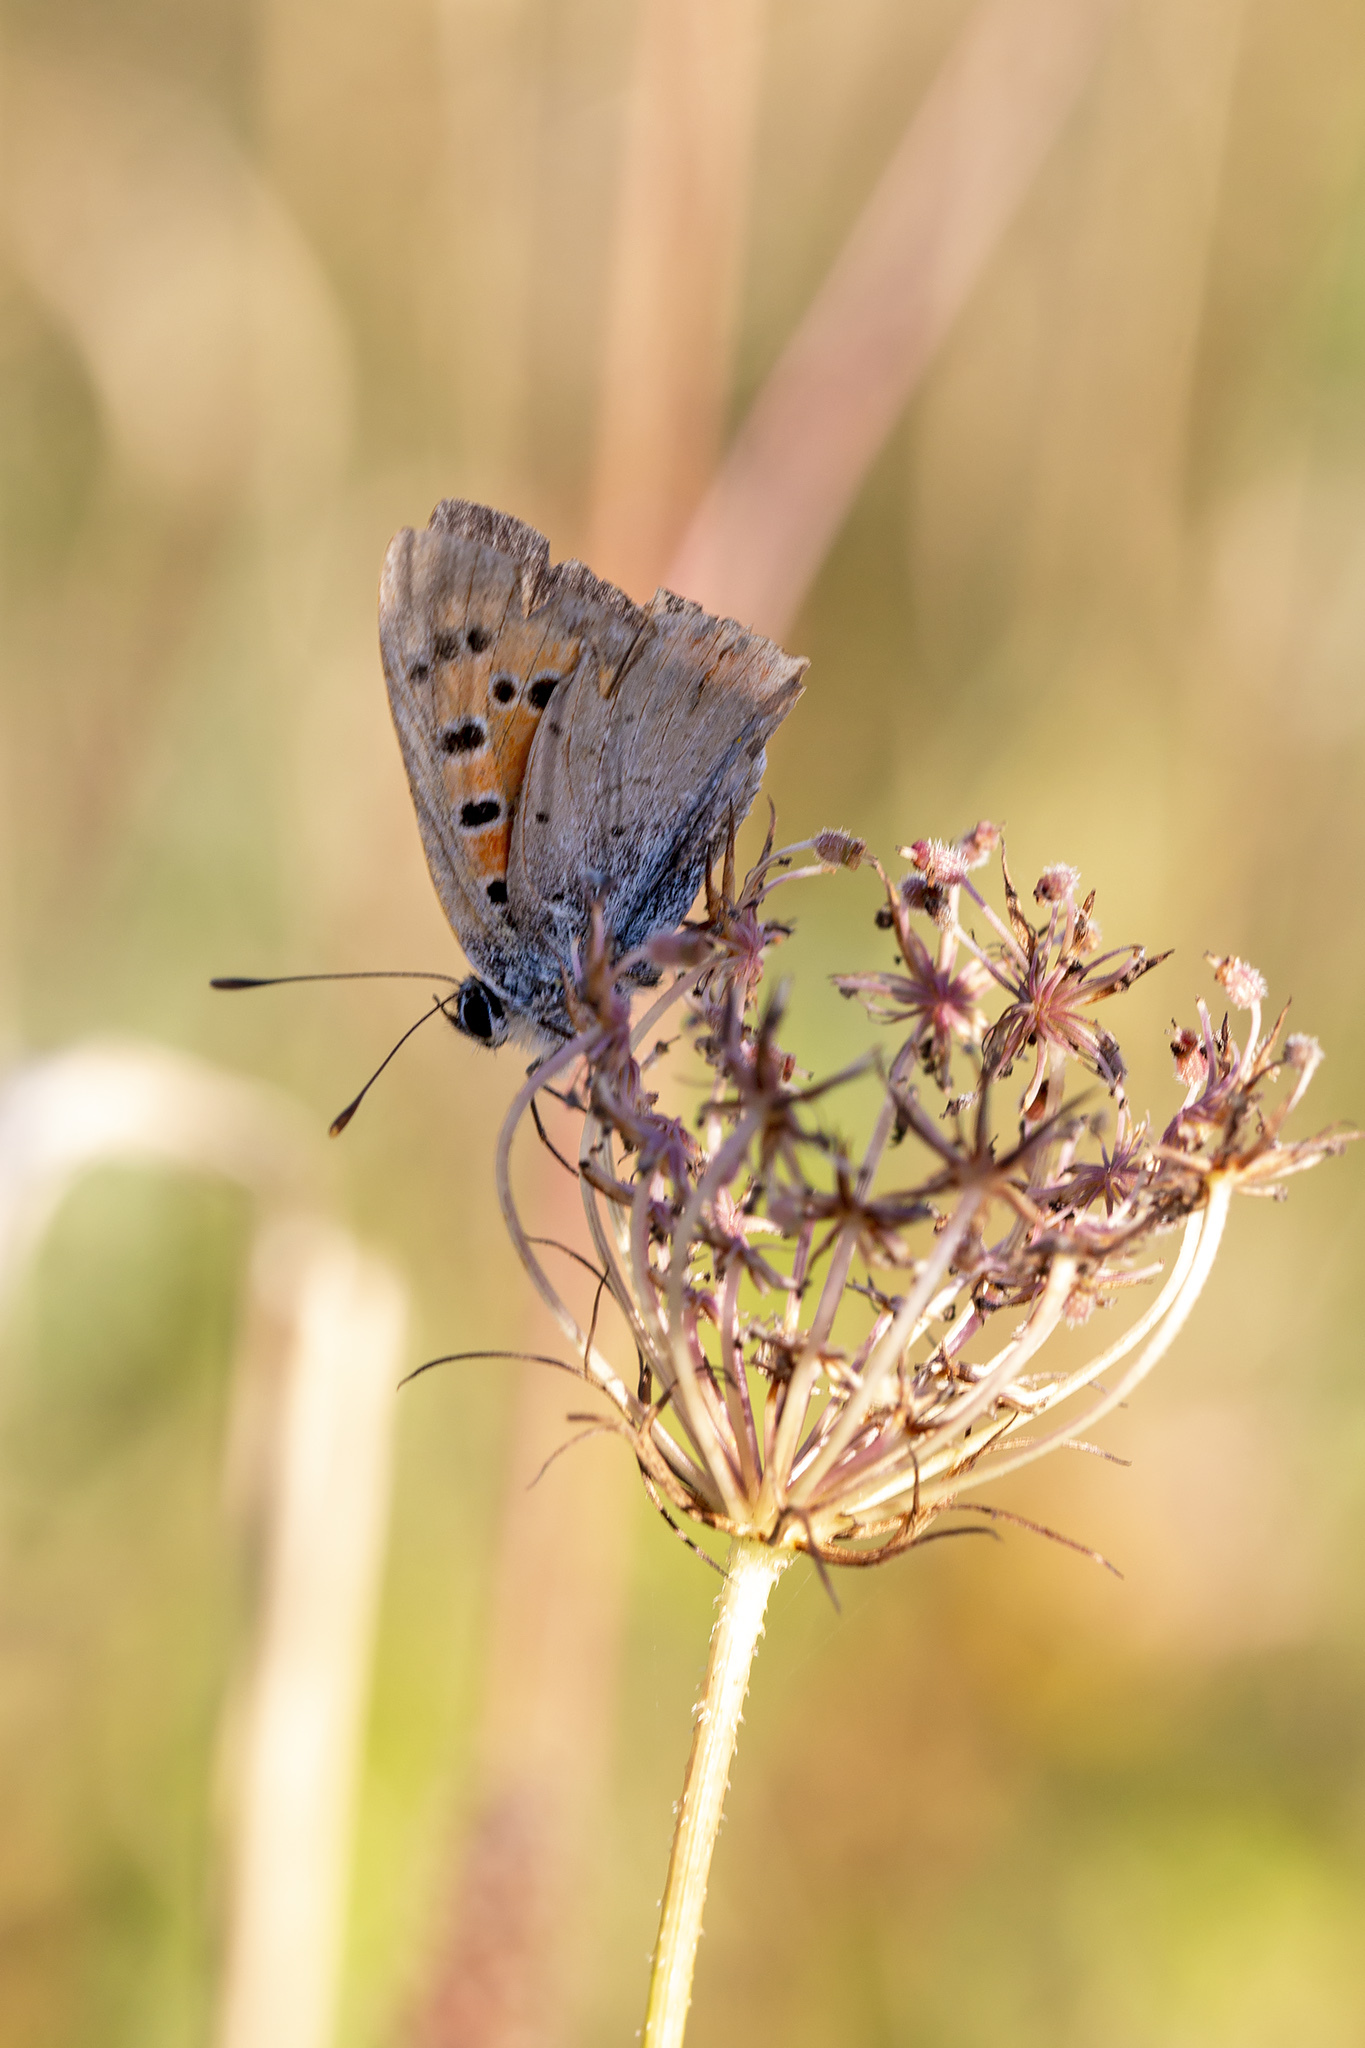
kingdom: Animalia
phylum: Arthropoda
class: Insecta
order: Lepidoptera
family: Lycaenidae
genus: Lycaena
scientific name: Lycaena phlaeas
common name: Small copper
